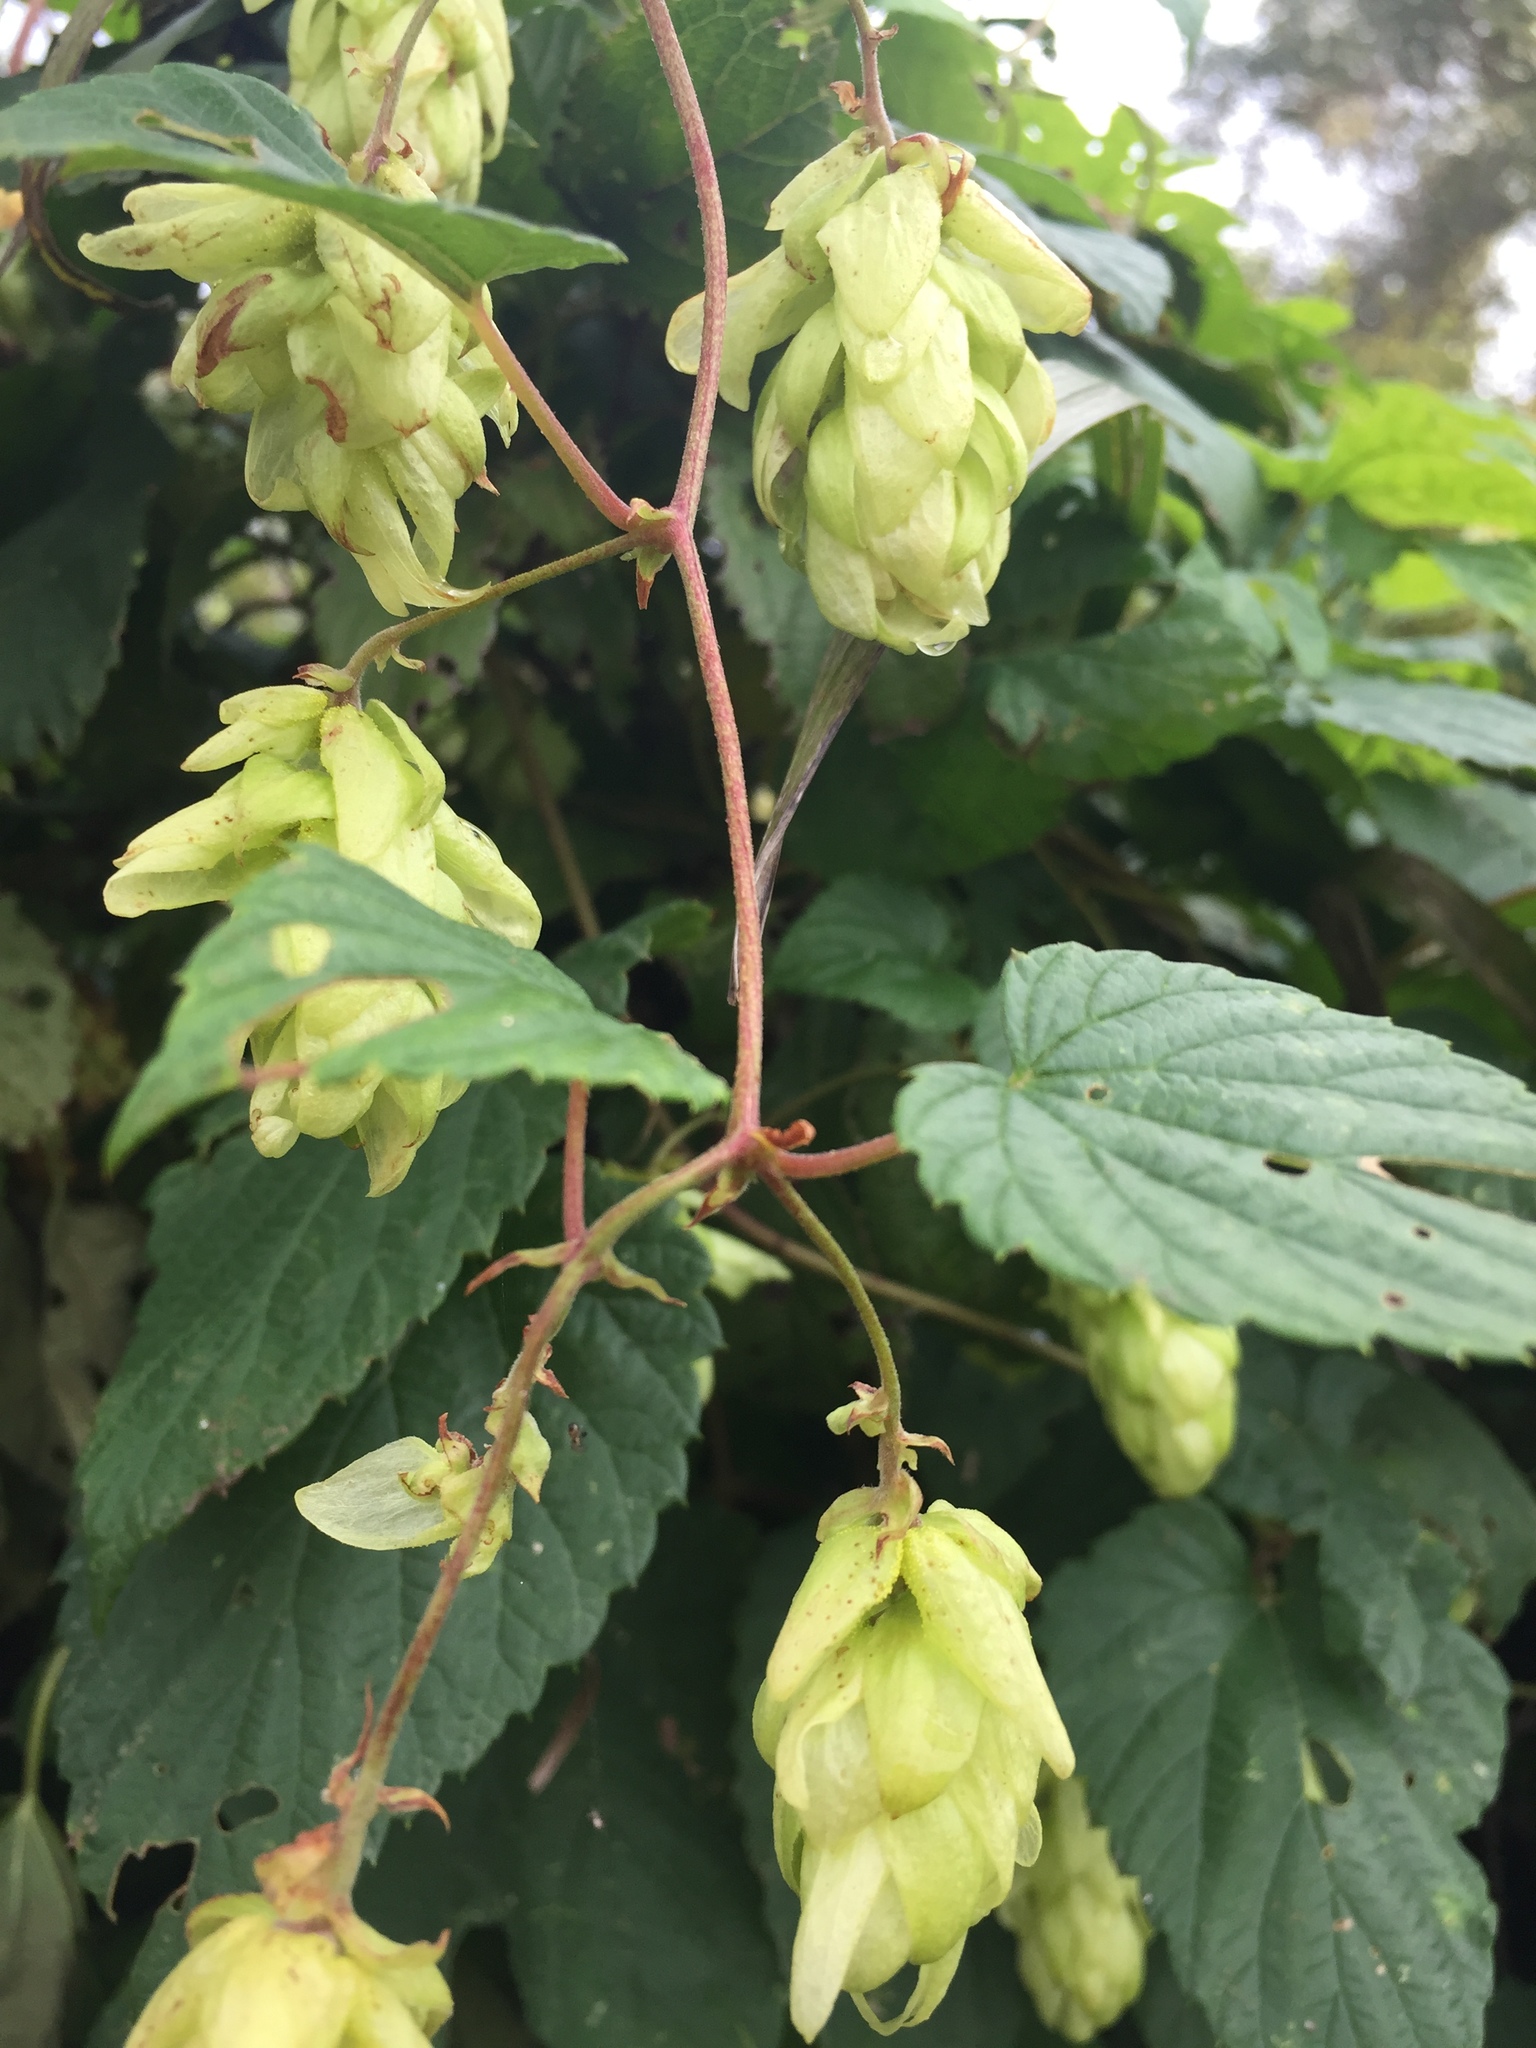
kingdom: Plantae
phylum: Tracheophyta
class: Magnoliopsida
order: Rosales
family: Cannabaceae
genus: Humulus
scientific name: Humulus lupulus
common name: Hop
